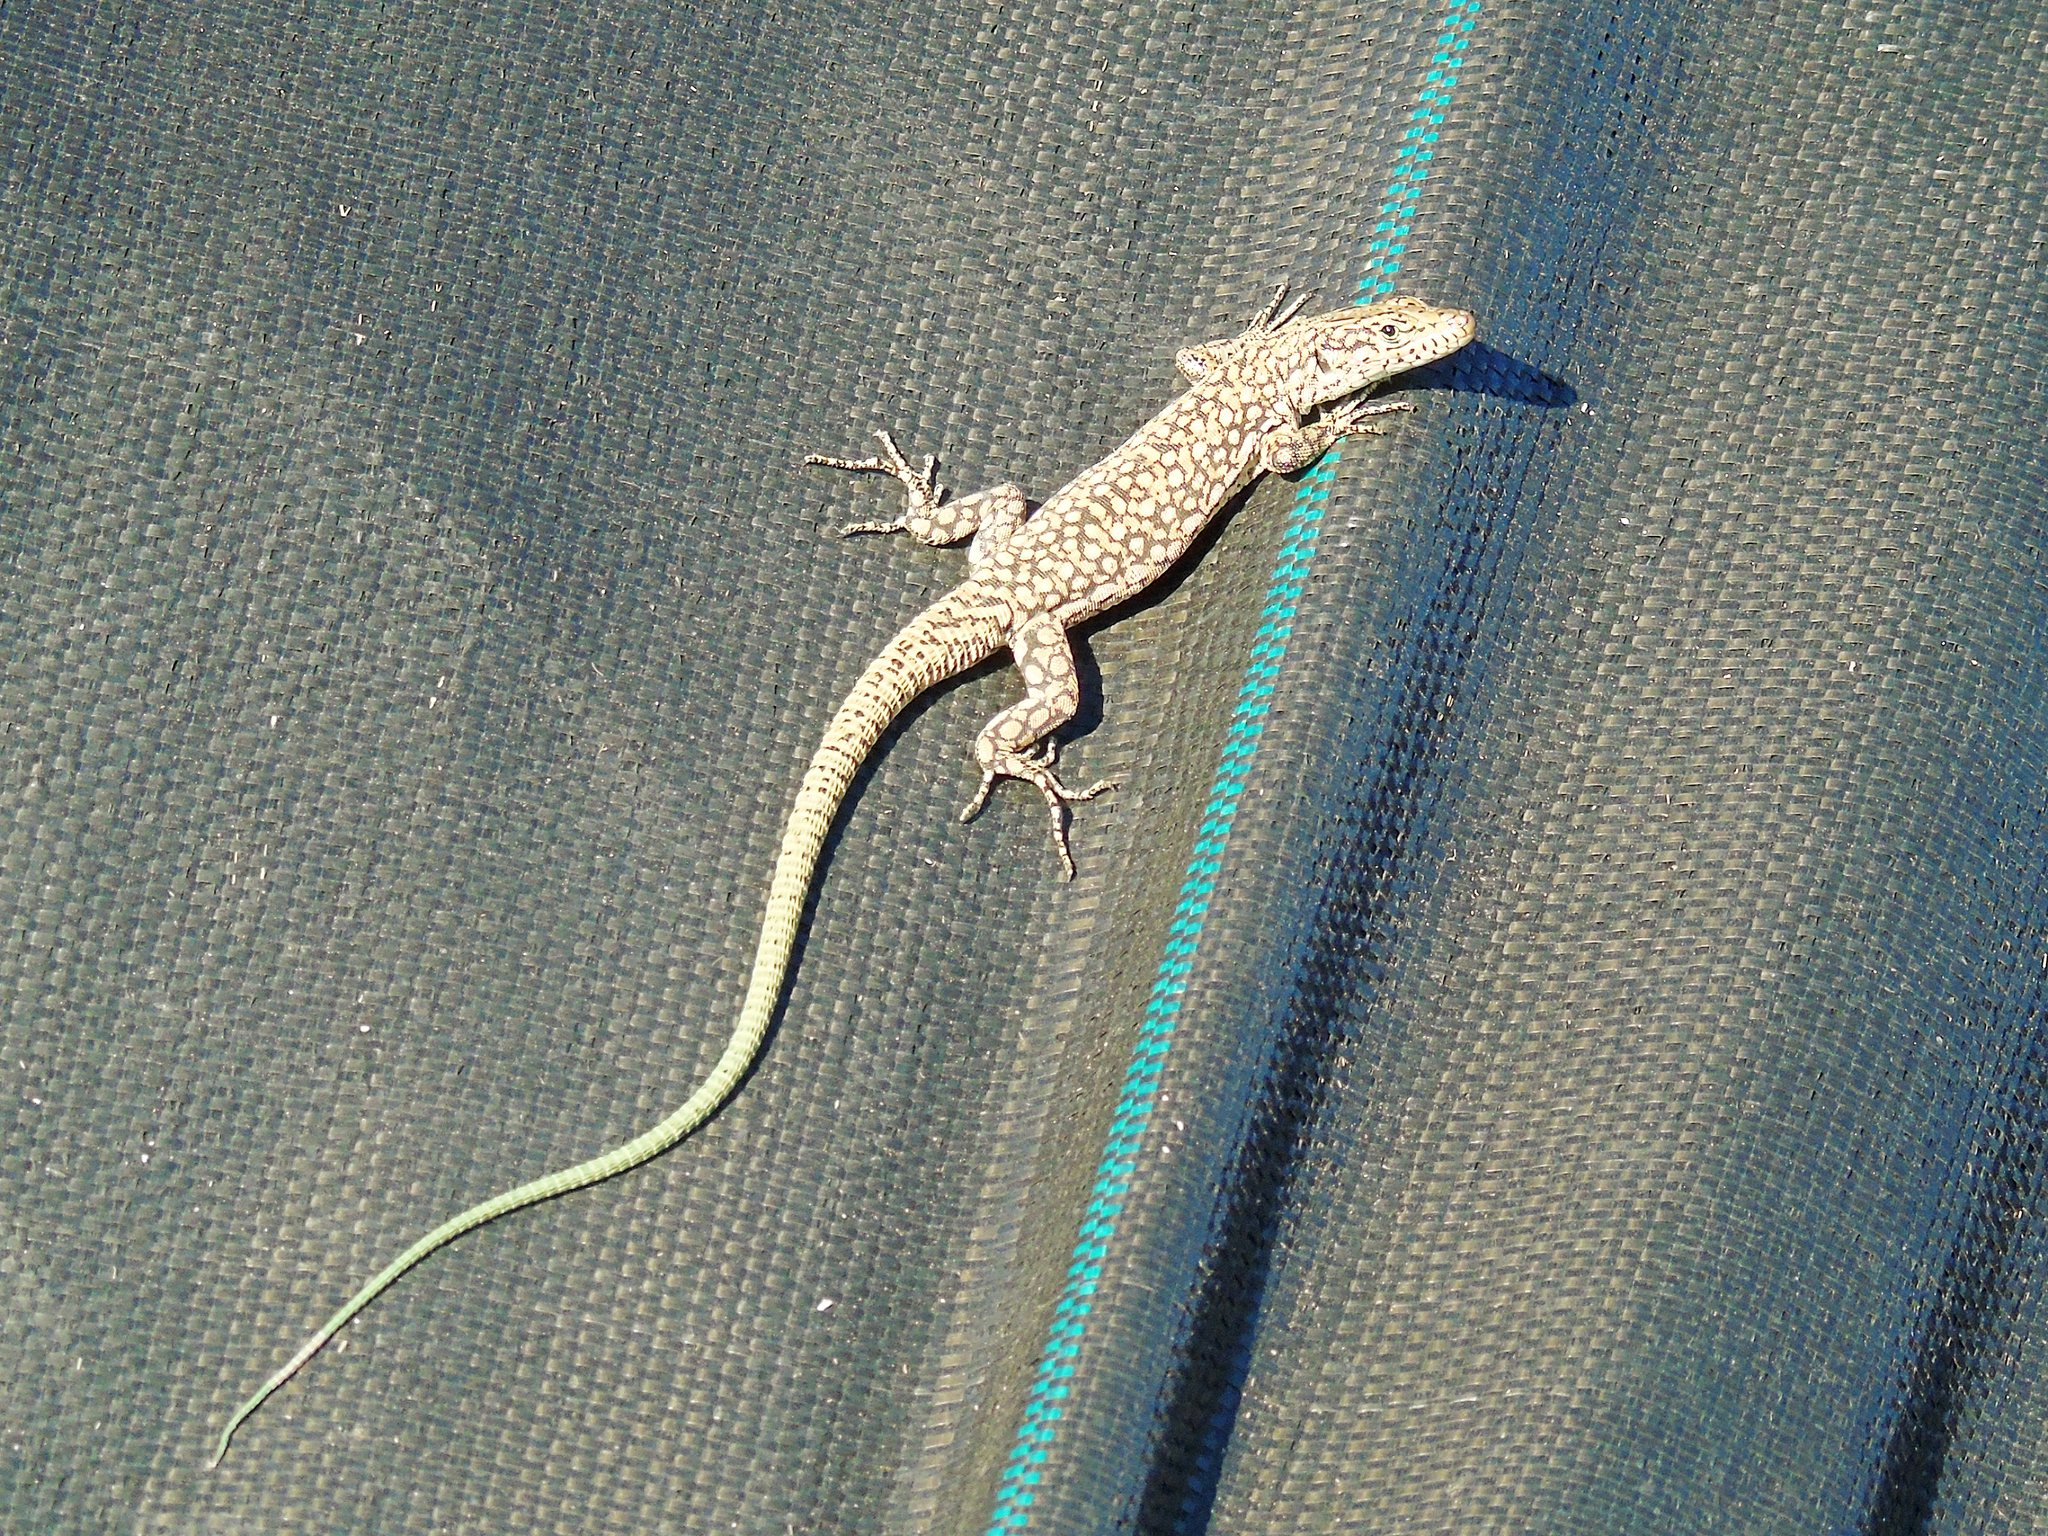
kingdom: Animalia
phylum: Chordata
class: Squamata
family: Lacertidae
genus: Apathya
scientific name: Apathya cappadocica
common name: Anatolian lizard
